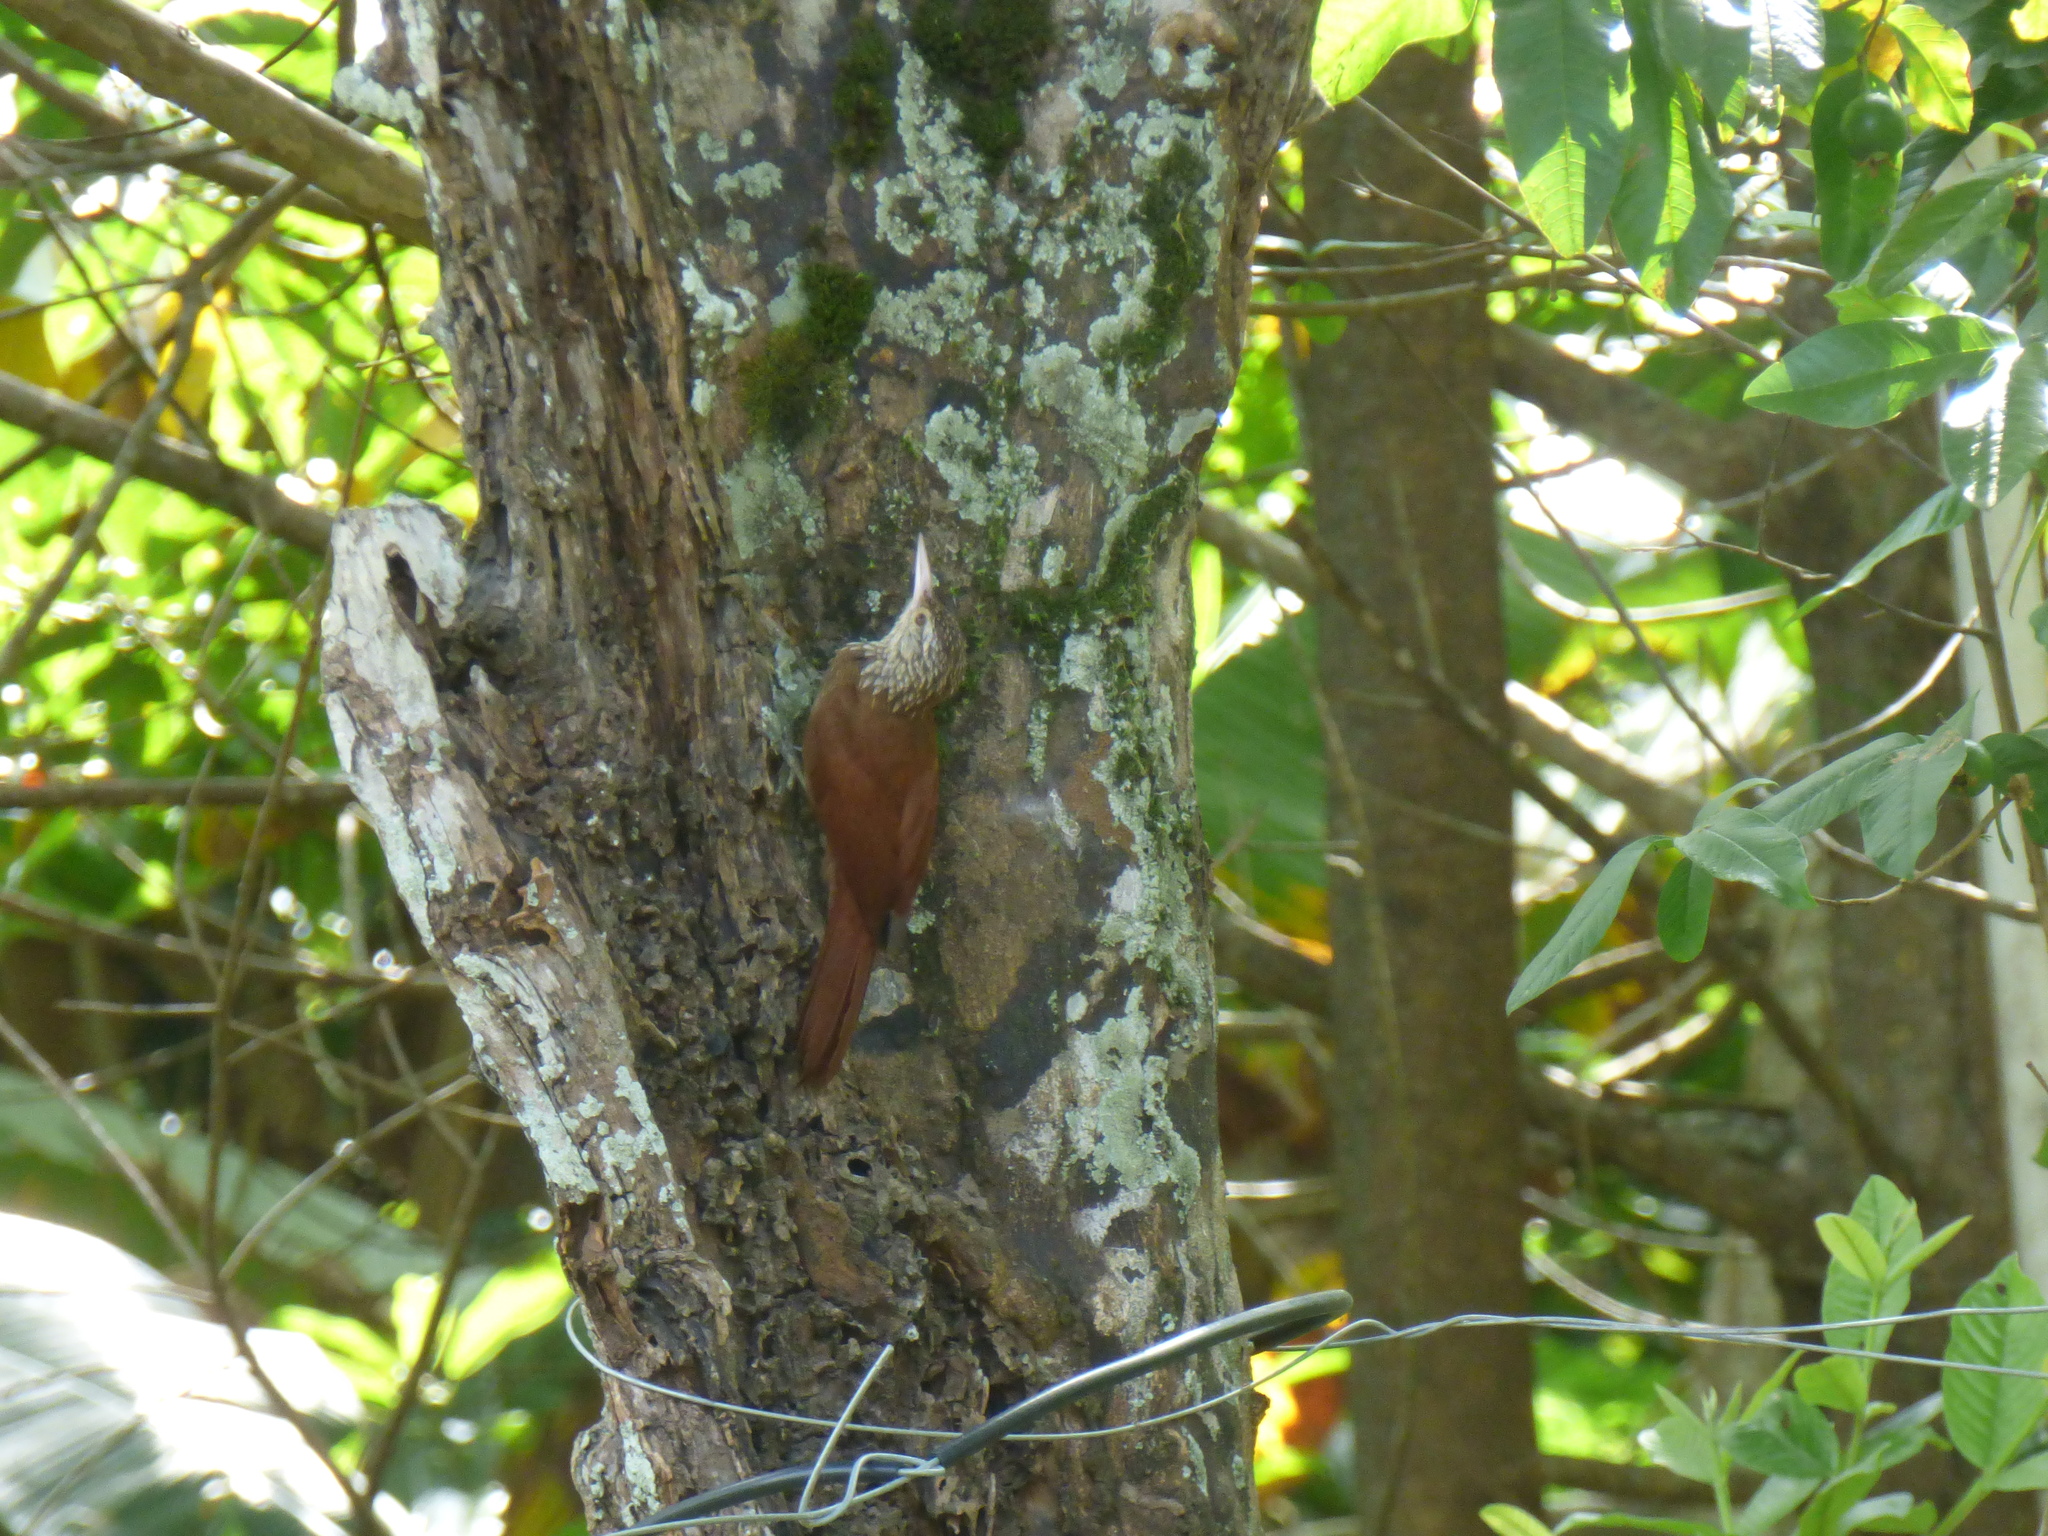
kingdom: Animalia
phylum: Chordata
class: Aves
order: Passeriformes
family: Furnariidae
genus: Xiphorhynchus
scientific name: Xiphorhynchus picus
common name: Straight-billed woodcreeper
